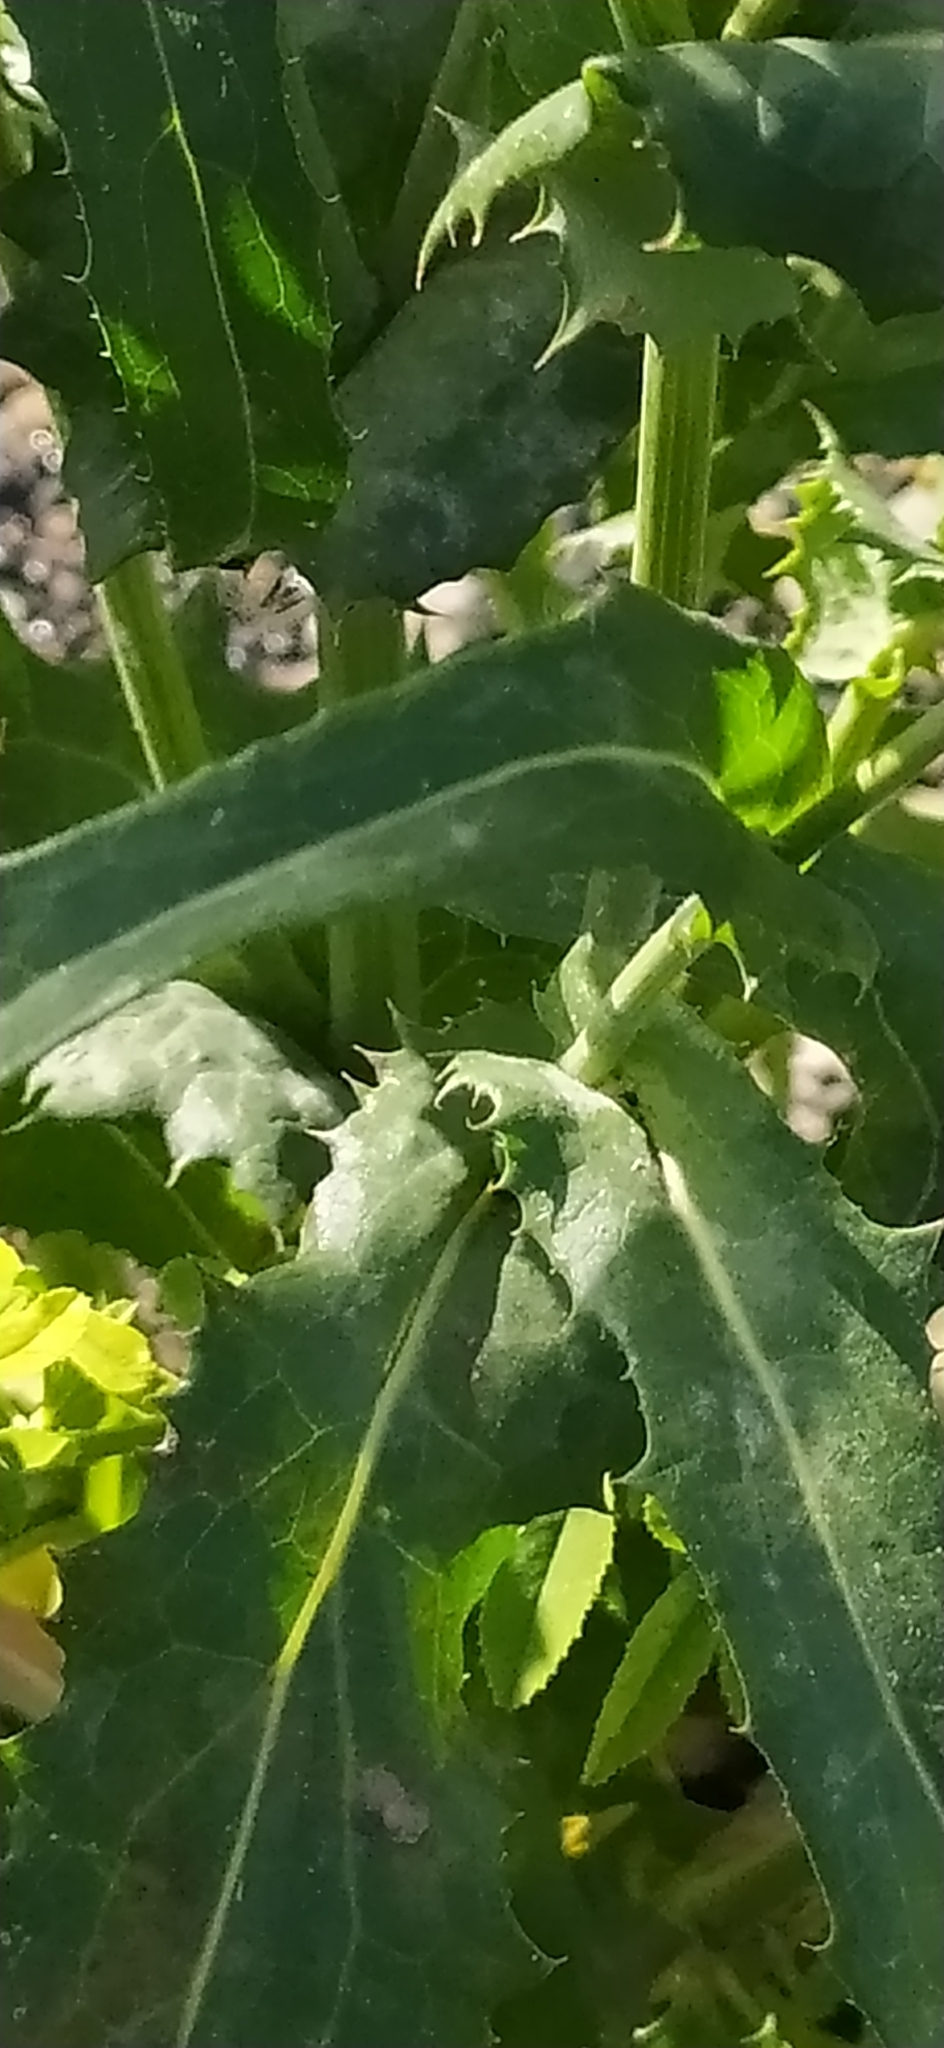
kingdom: Plantae
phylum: Tracheophyta
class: Magnoliopsida
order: Asterales
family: Asteraceae
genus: Sonchus
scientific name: Sonchus arvensis
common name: Perennial sow-thistle
